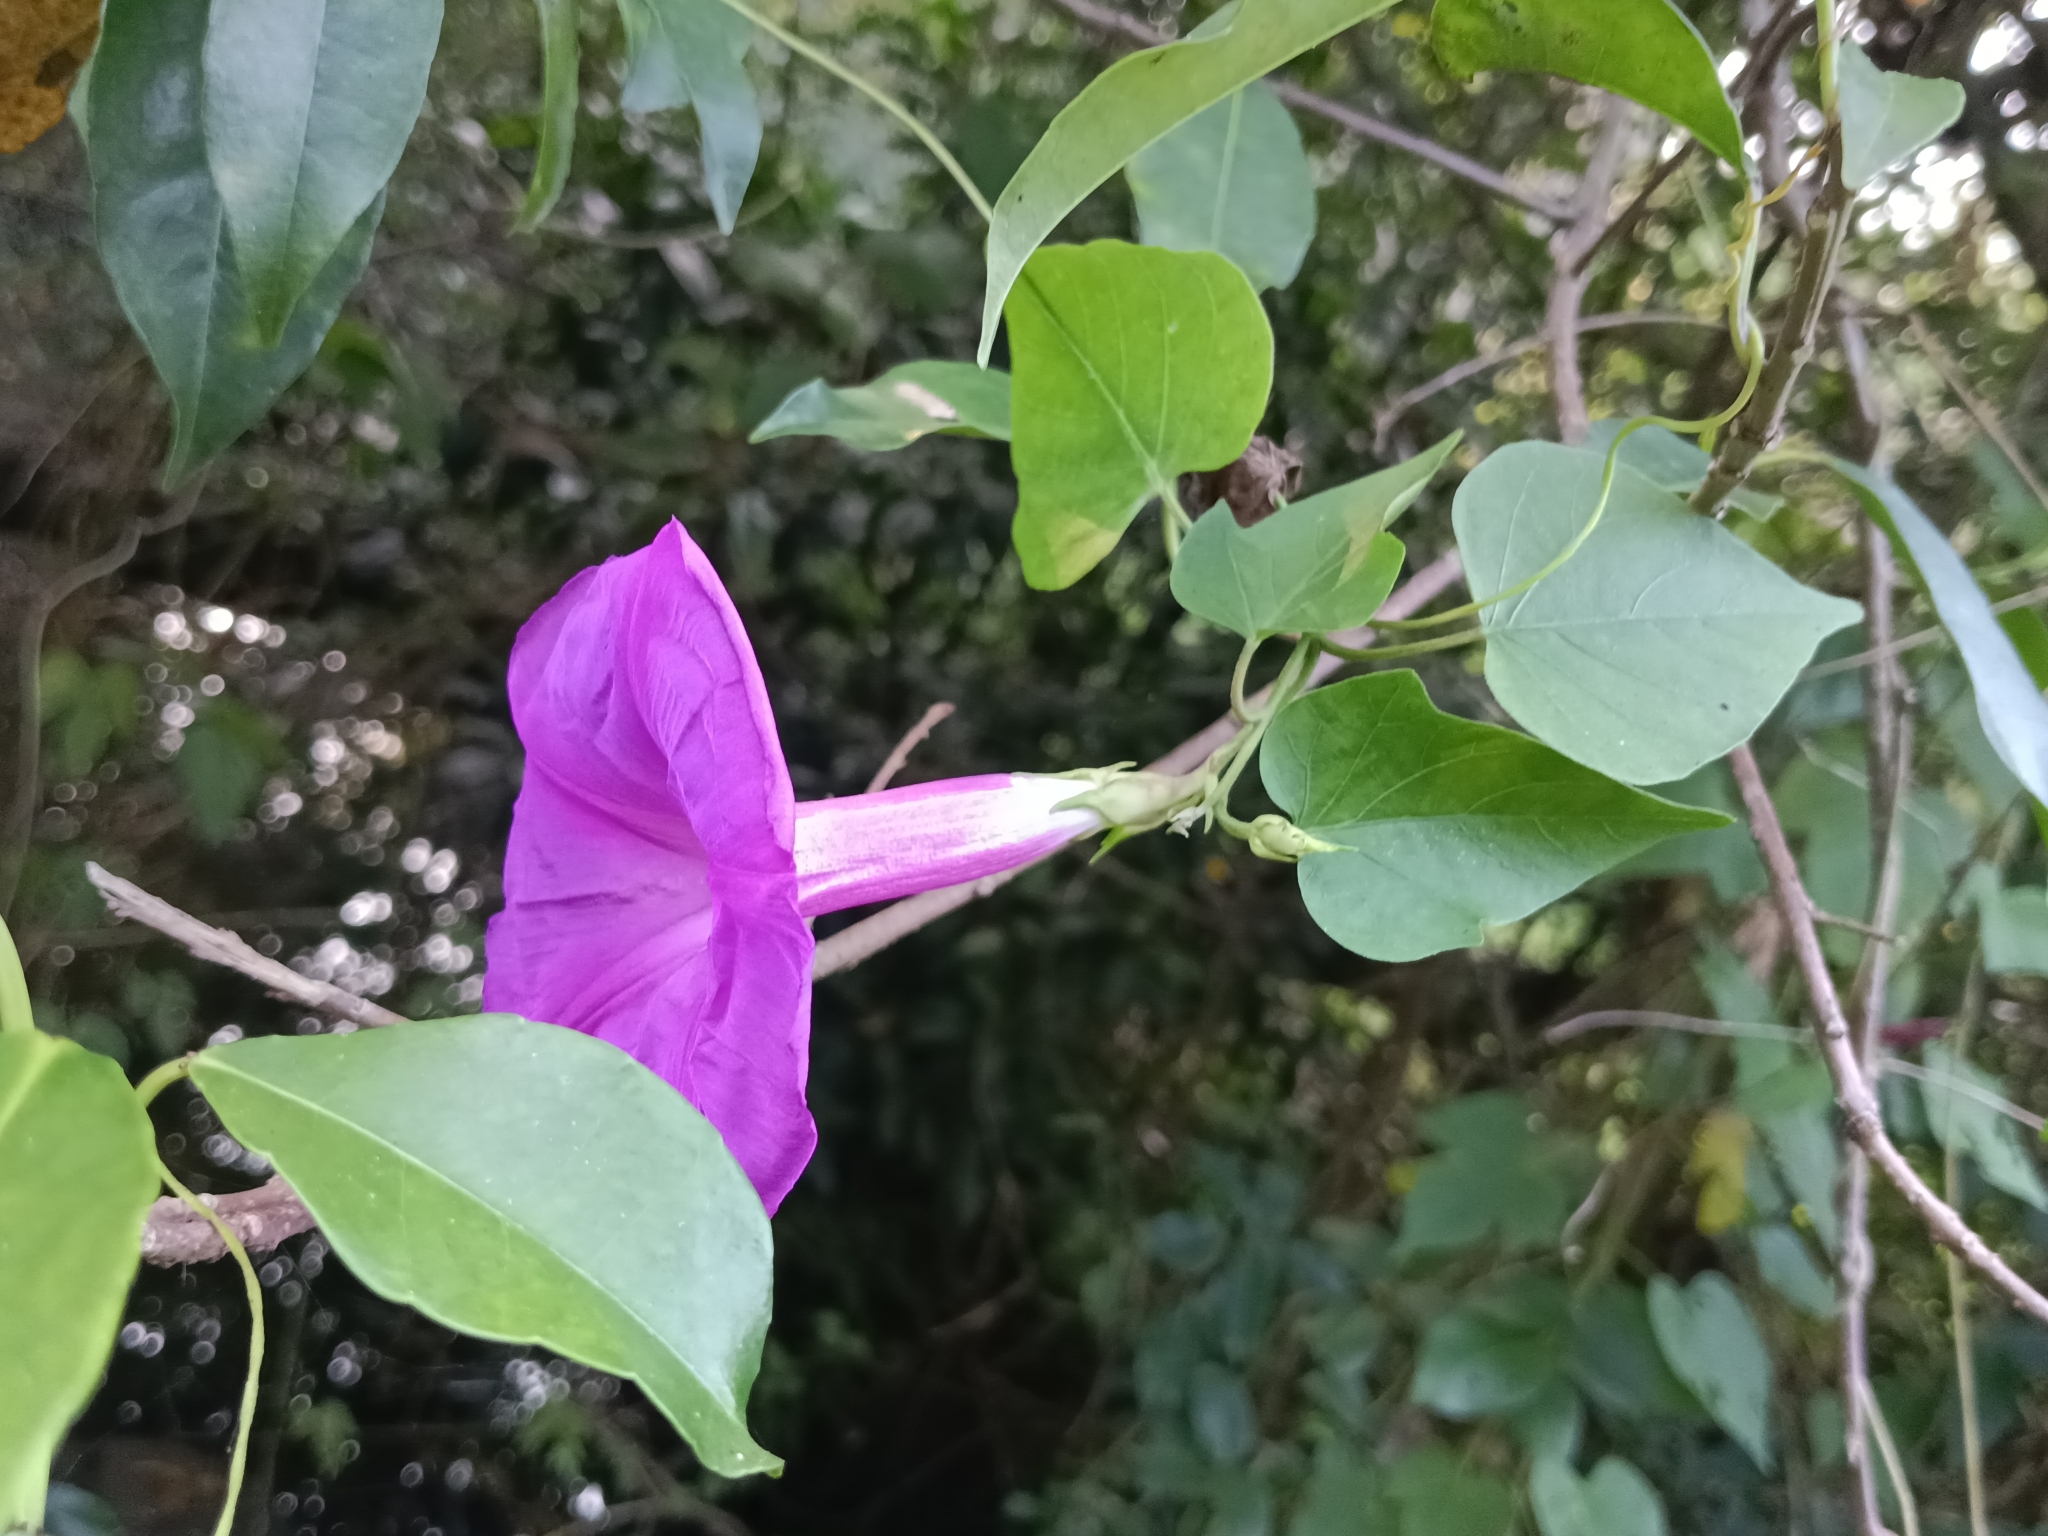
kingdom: Plantae
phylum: Tracheophyta
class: Magnoliopsida
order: Solanales
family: Convolvulaceae
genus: Ipomoea
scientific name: Ipomoea indica
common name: Blue dawnflower
